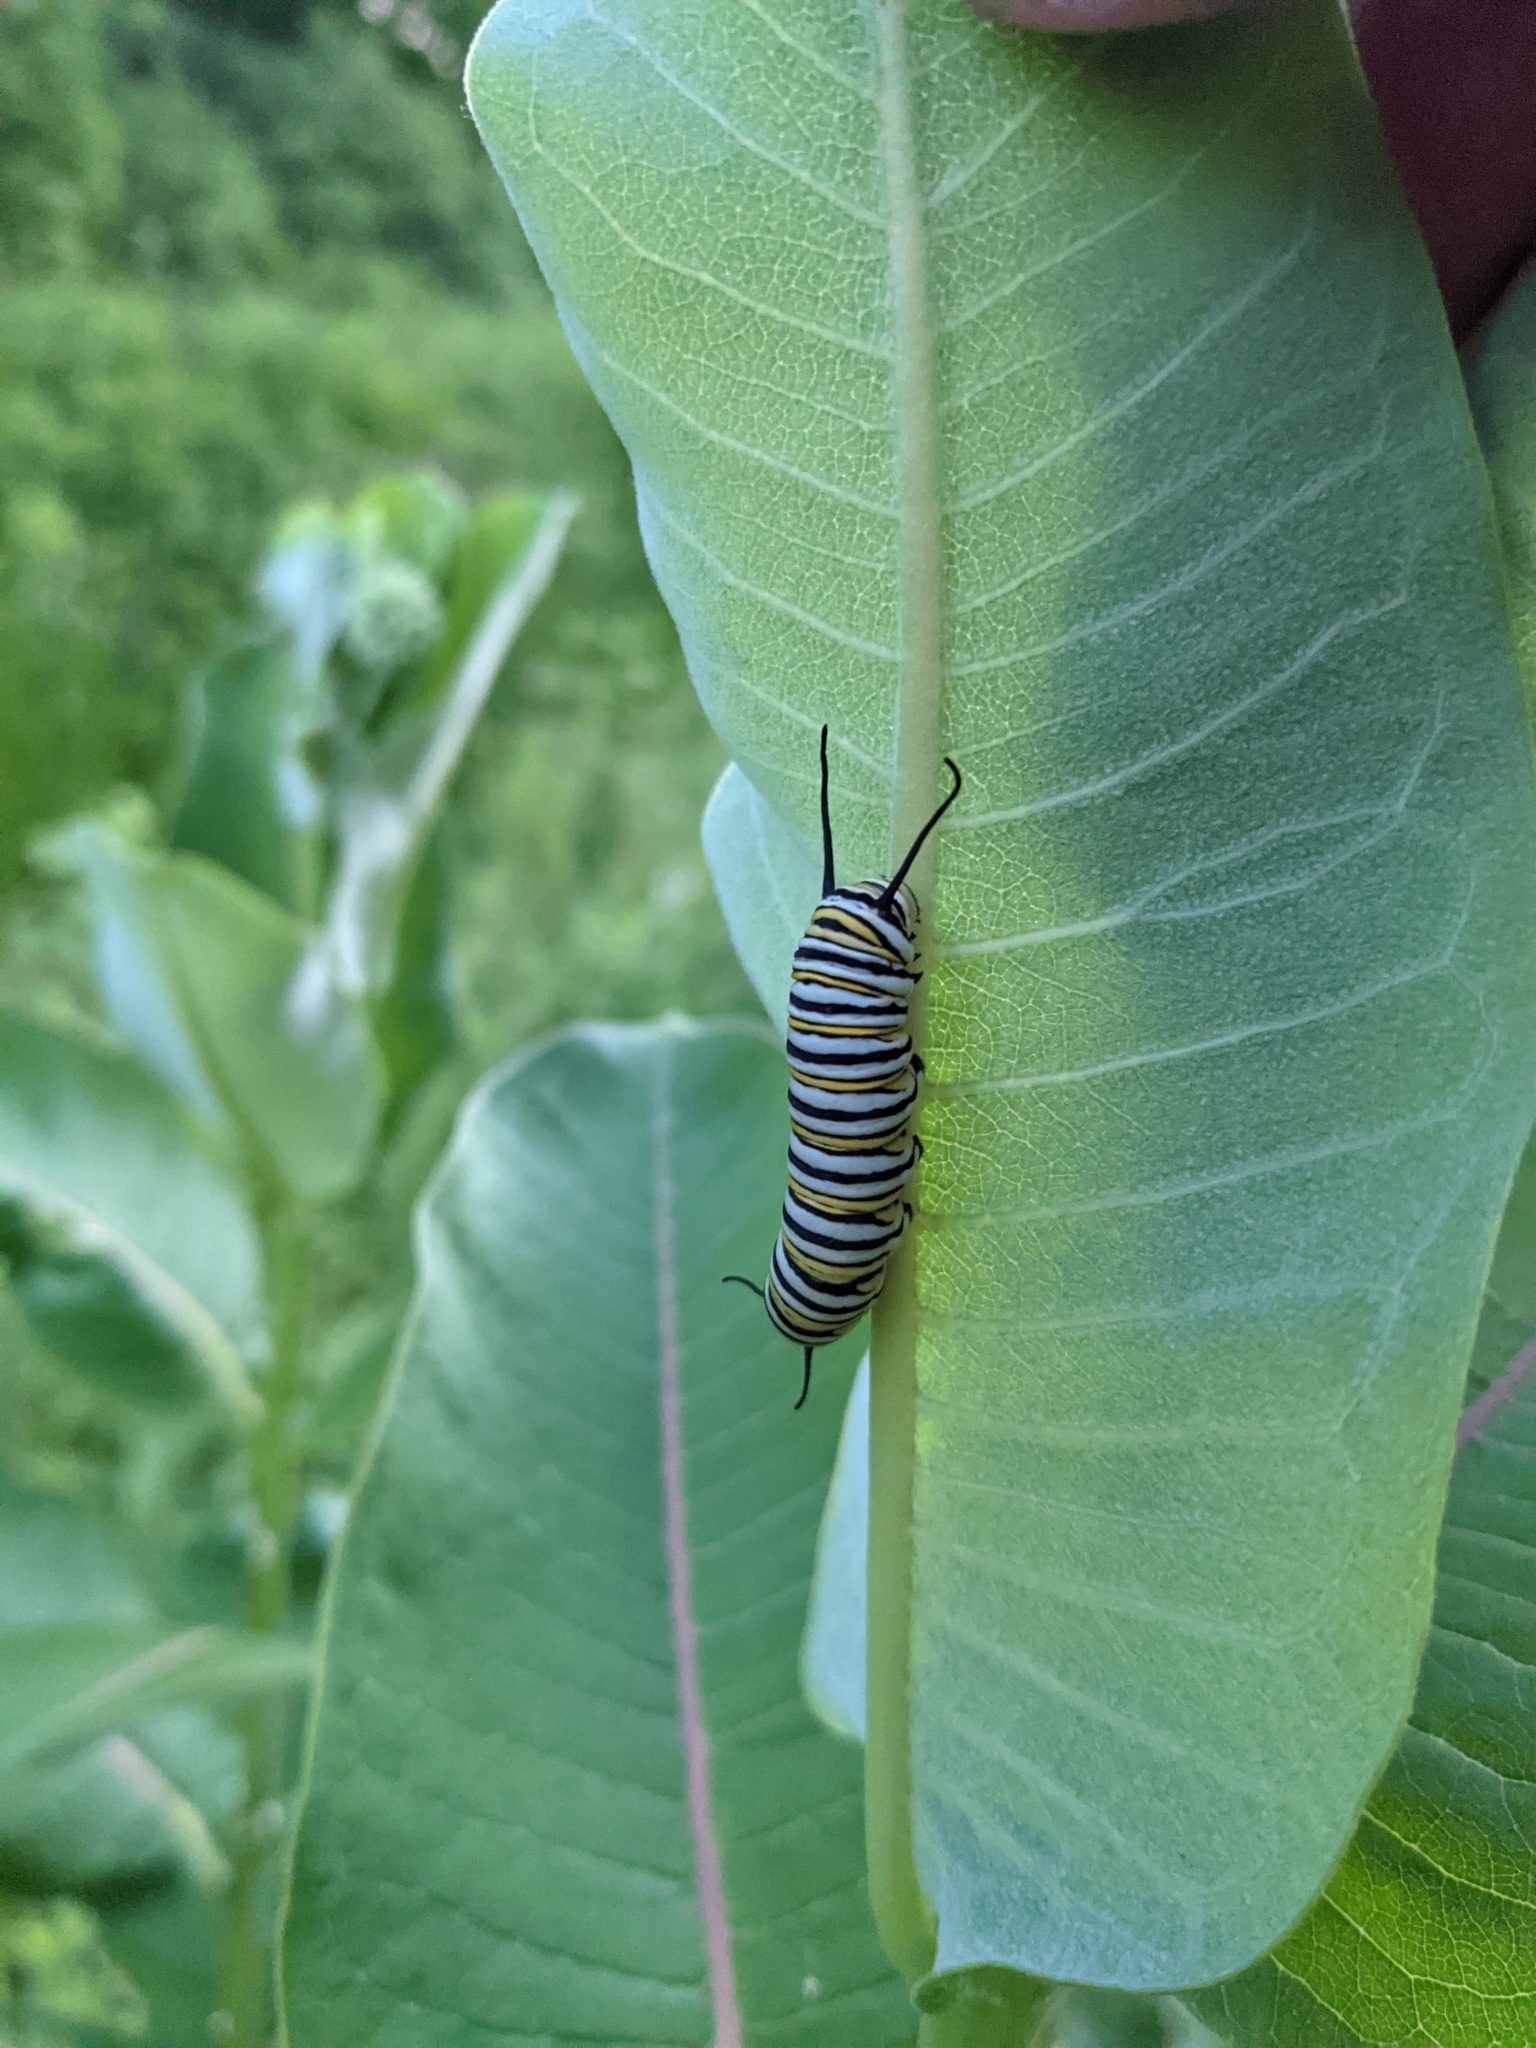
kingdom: Animalia
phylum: Arthropoda
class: Insecta
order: Lepidoptera
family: Nymphalidae
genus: Danaus
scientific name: Danaus plexippus
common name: Monarch
